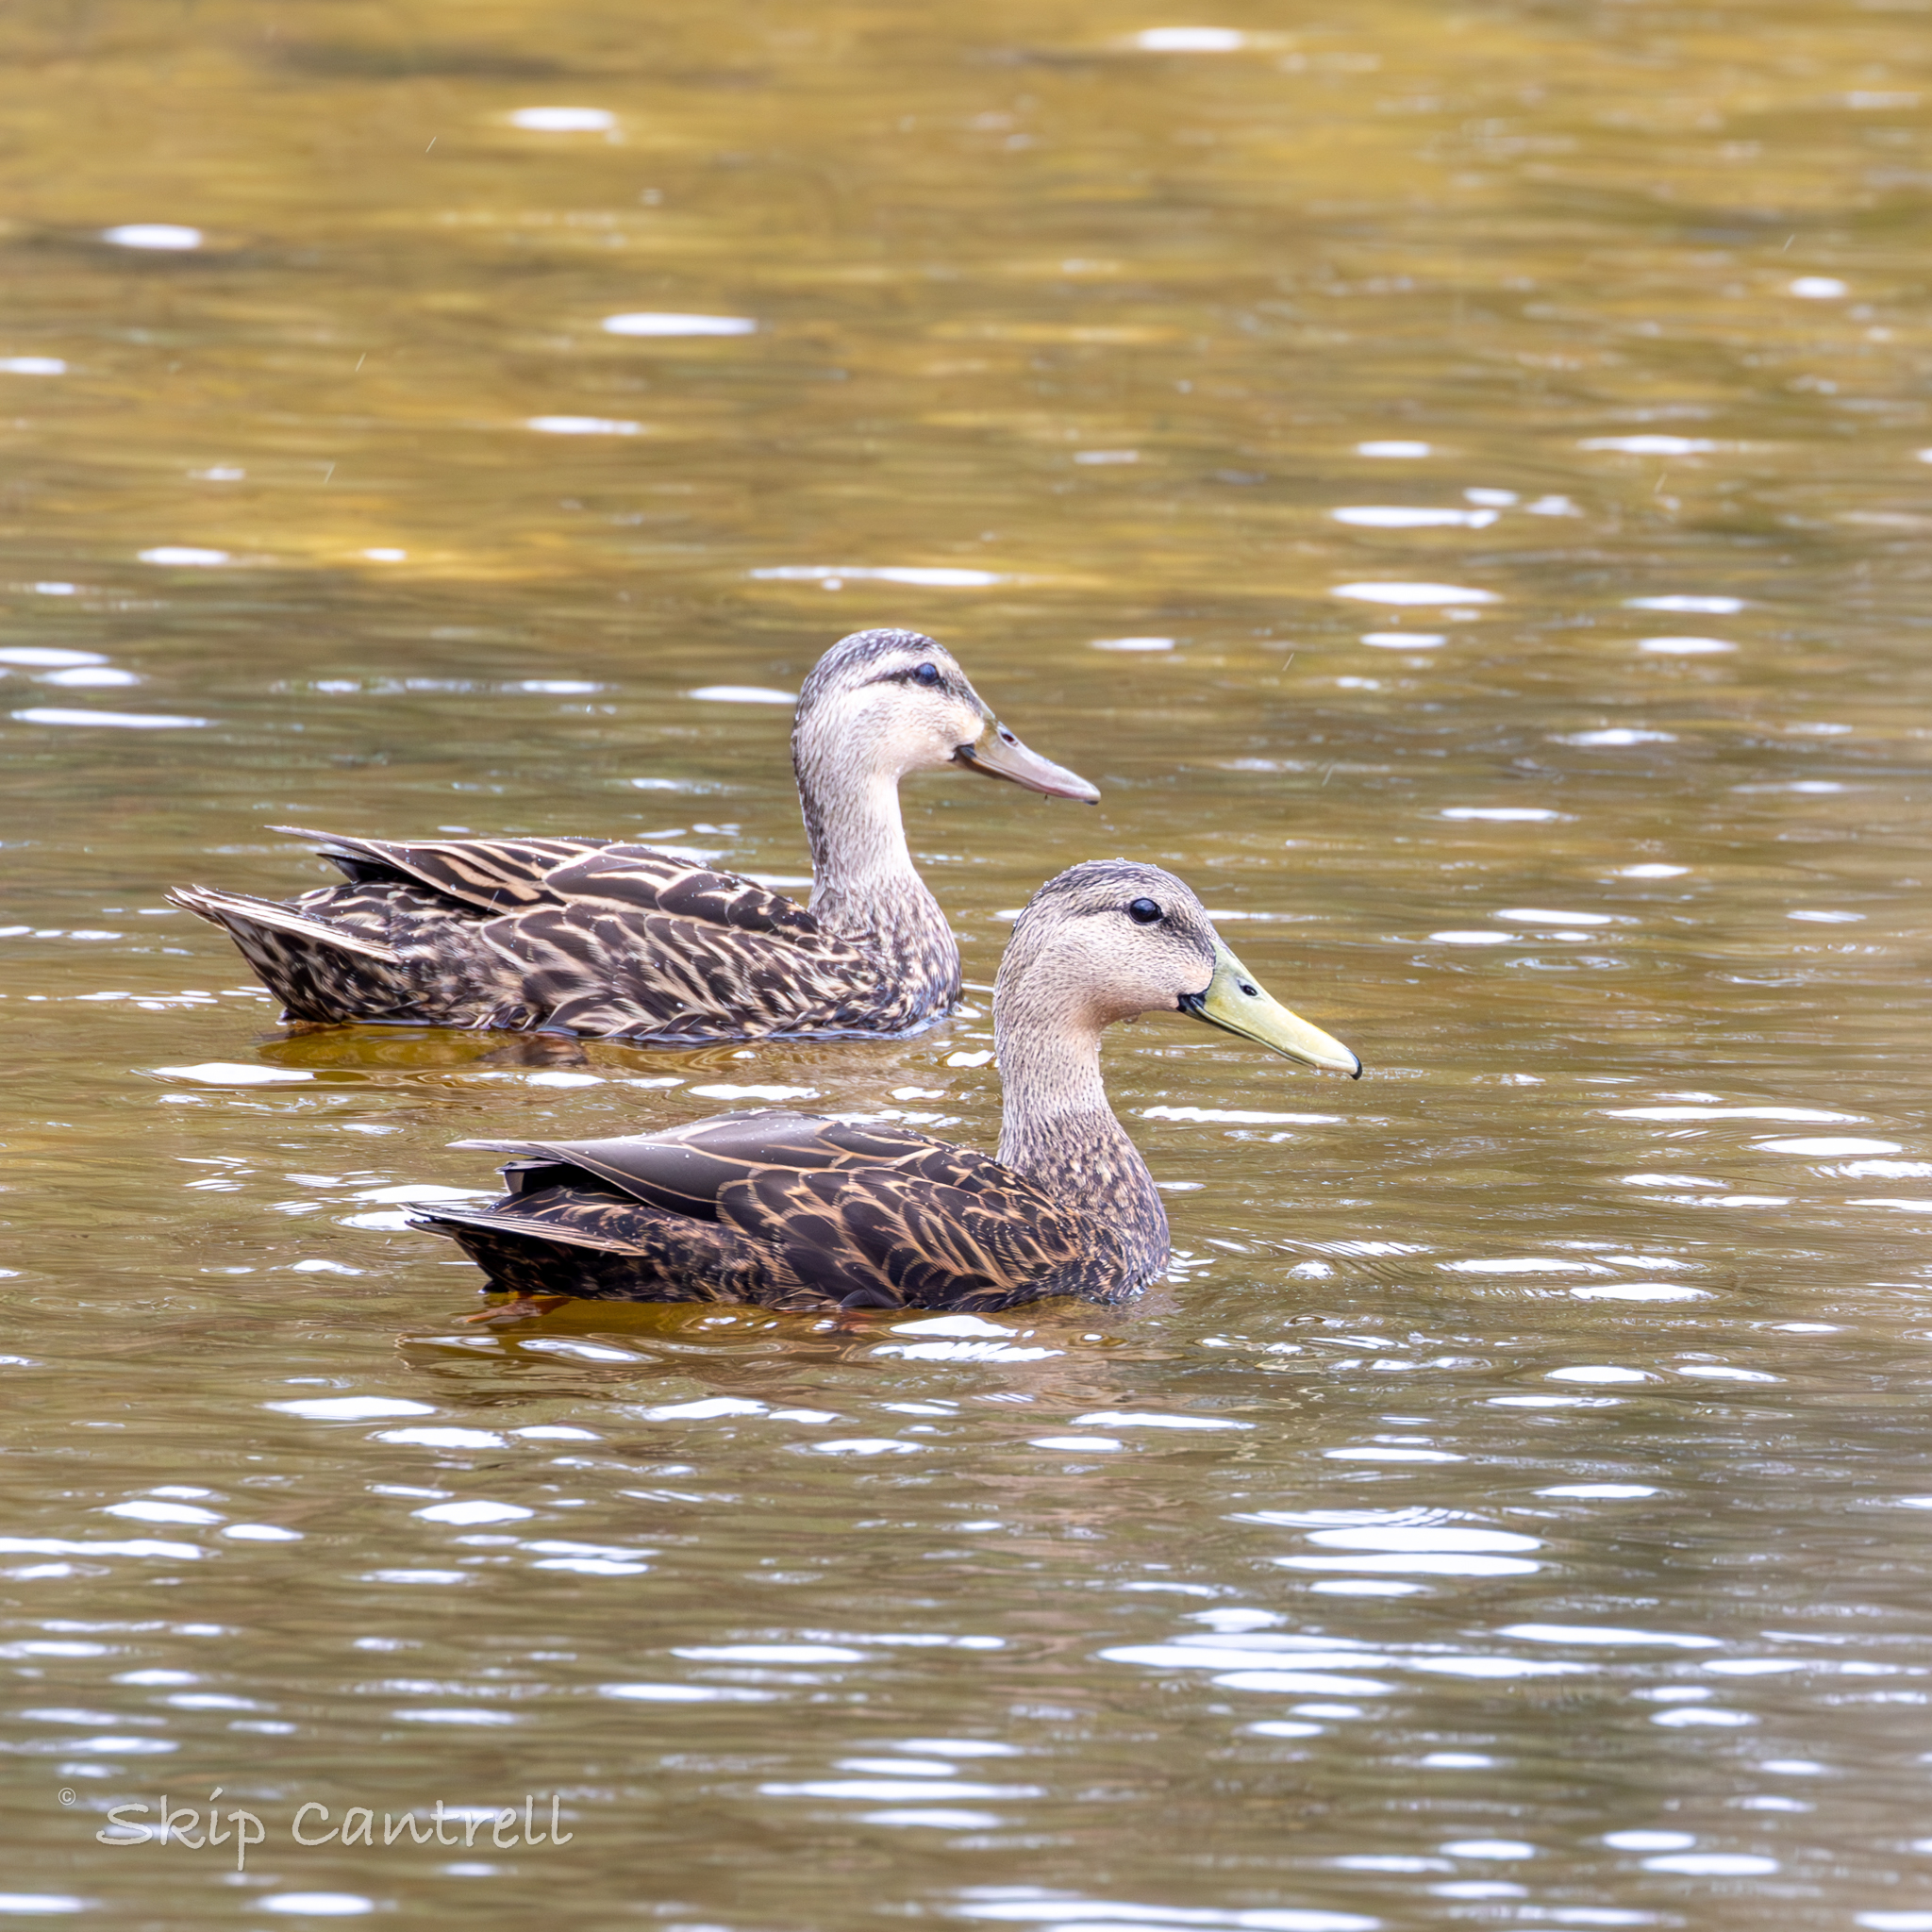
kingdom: Animalia
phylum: Chordata
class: Aves
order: Anseriformes
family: Anatidae
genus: Anas
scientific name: Anas fulvigula
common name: Mottled duck
